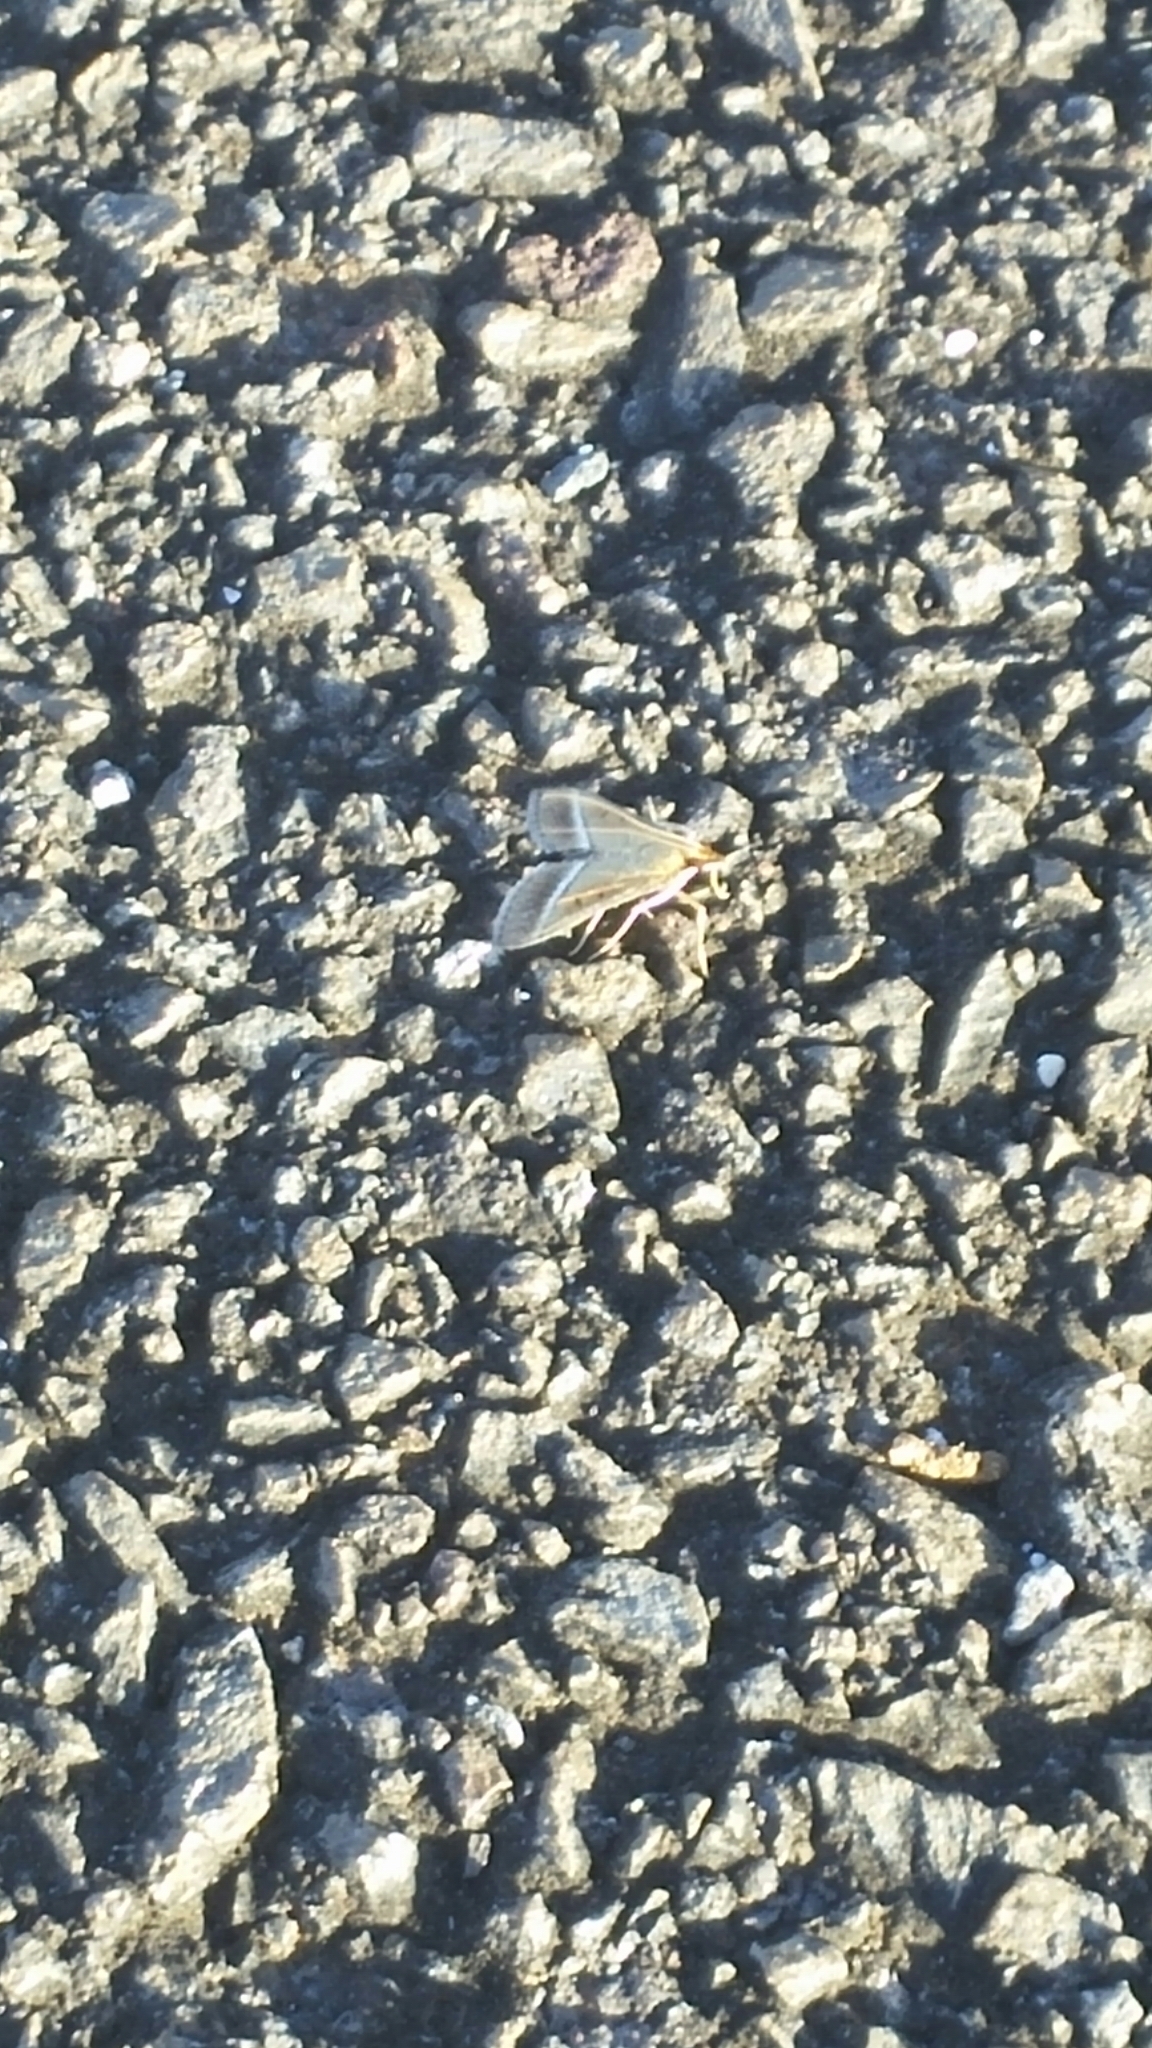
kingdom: Animalia
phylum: Arthropoda
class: Insecta
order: Lepidoptera
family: Crambidae
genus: Omiodes
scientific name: Omiodes monogramma
